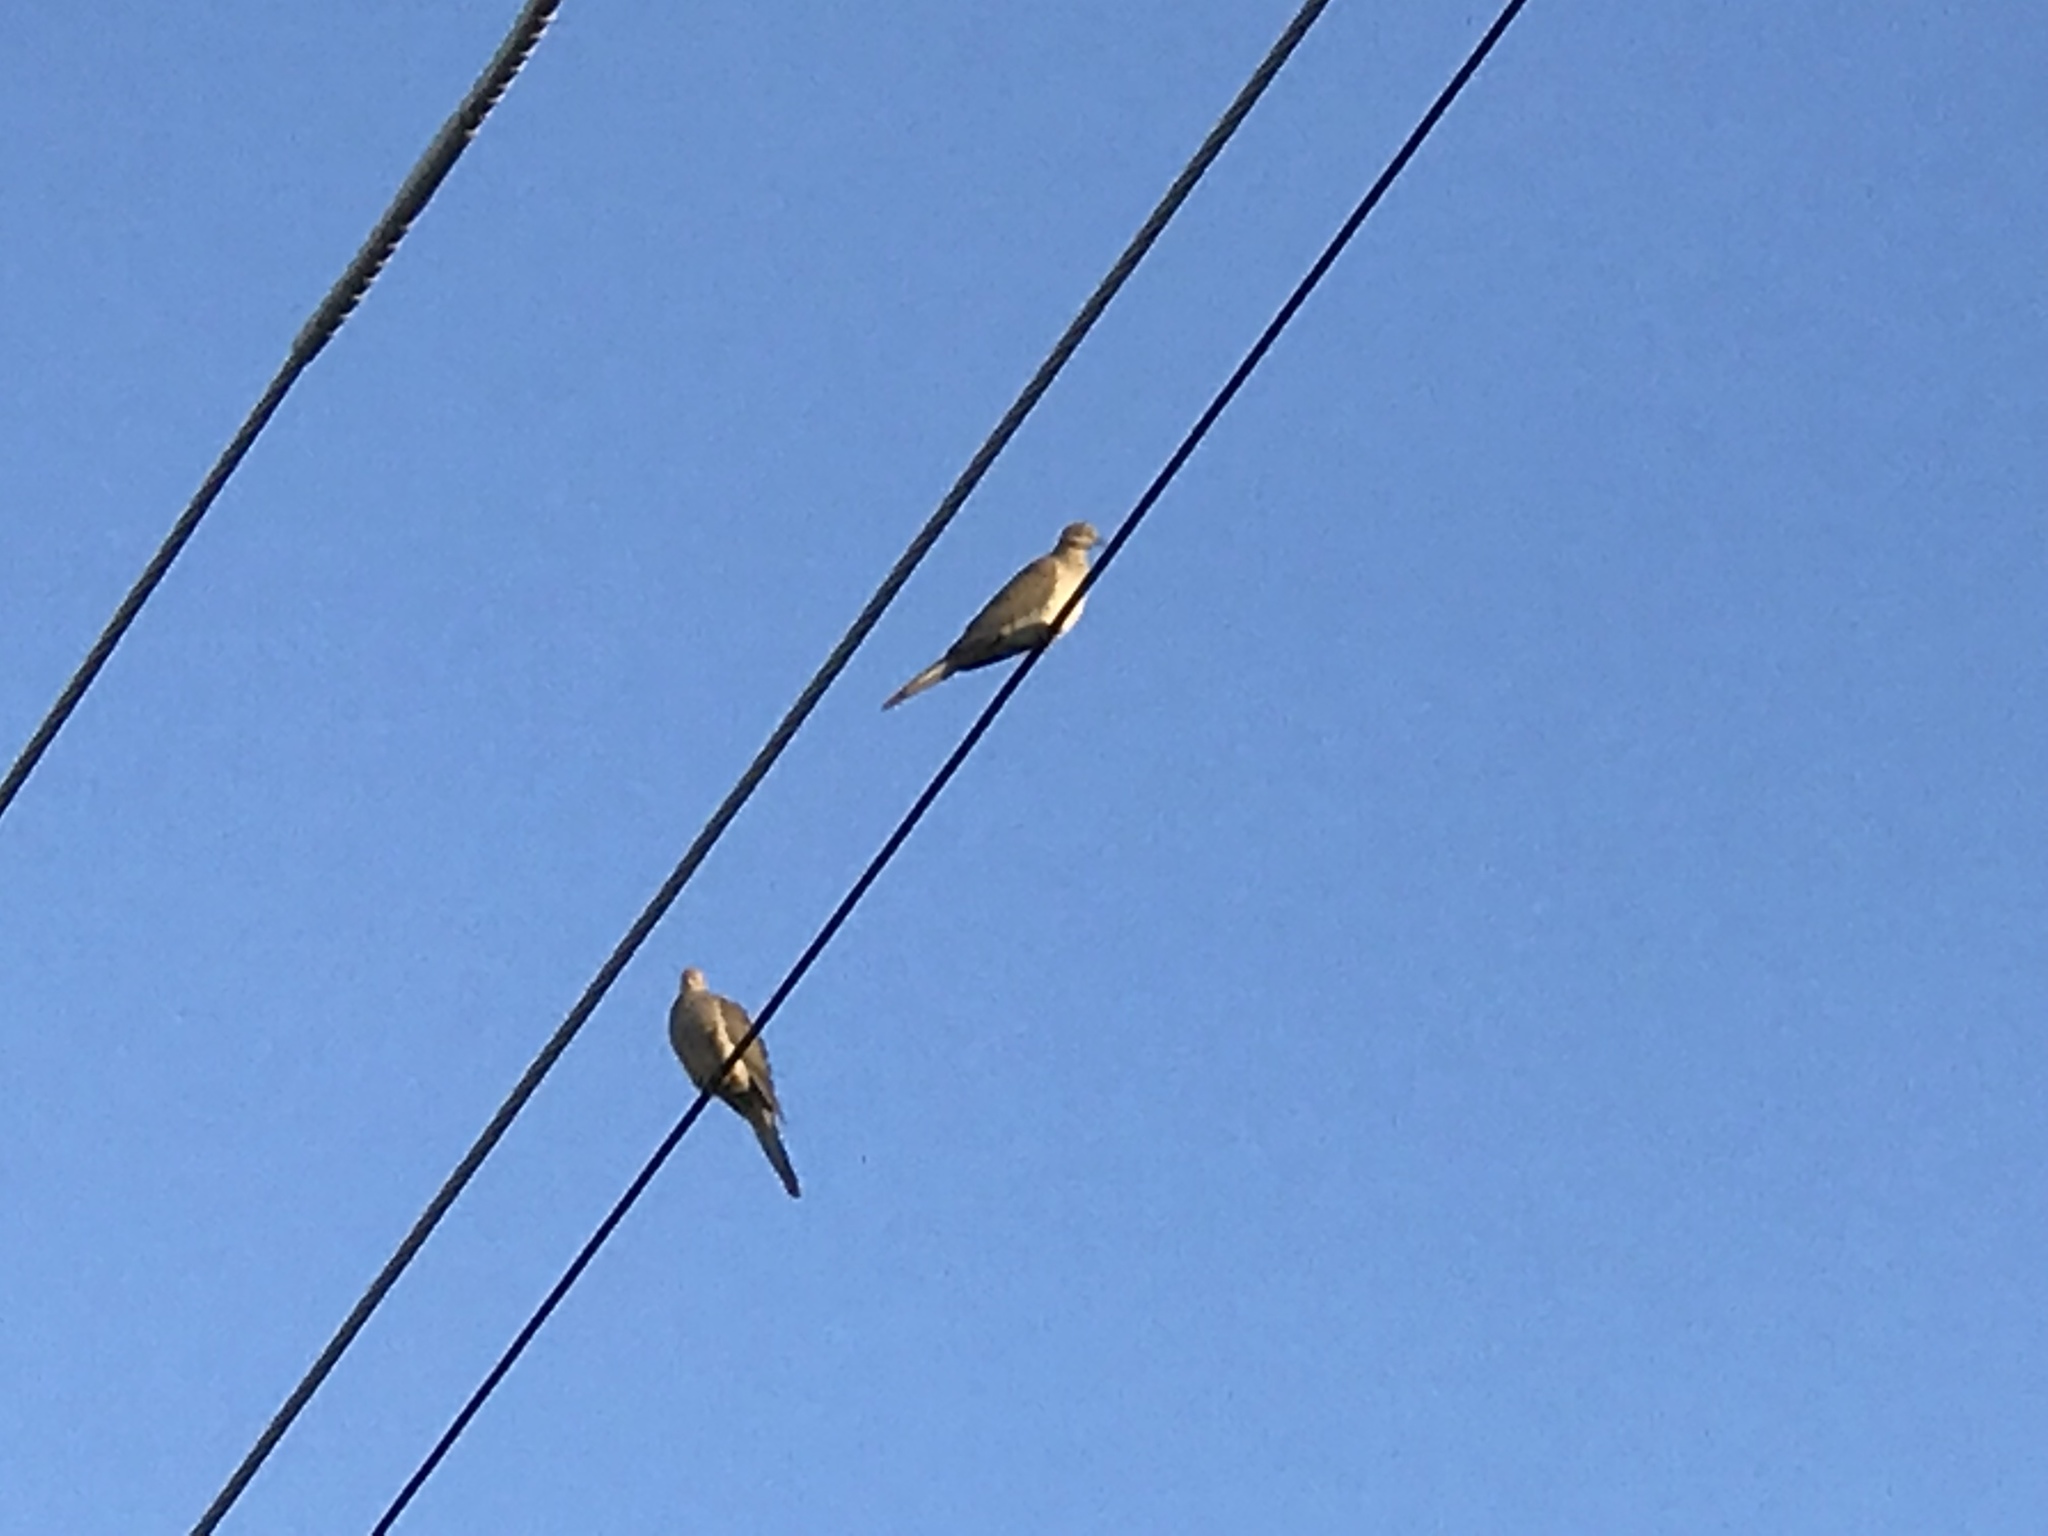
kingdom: Animalia
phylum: Chordata
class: Aves
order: Columbiformes
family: Columbidae
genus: Zenaida
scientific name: Zenaida macroura
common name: Mourning dove
